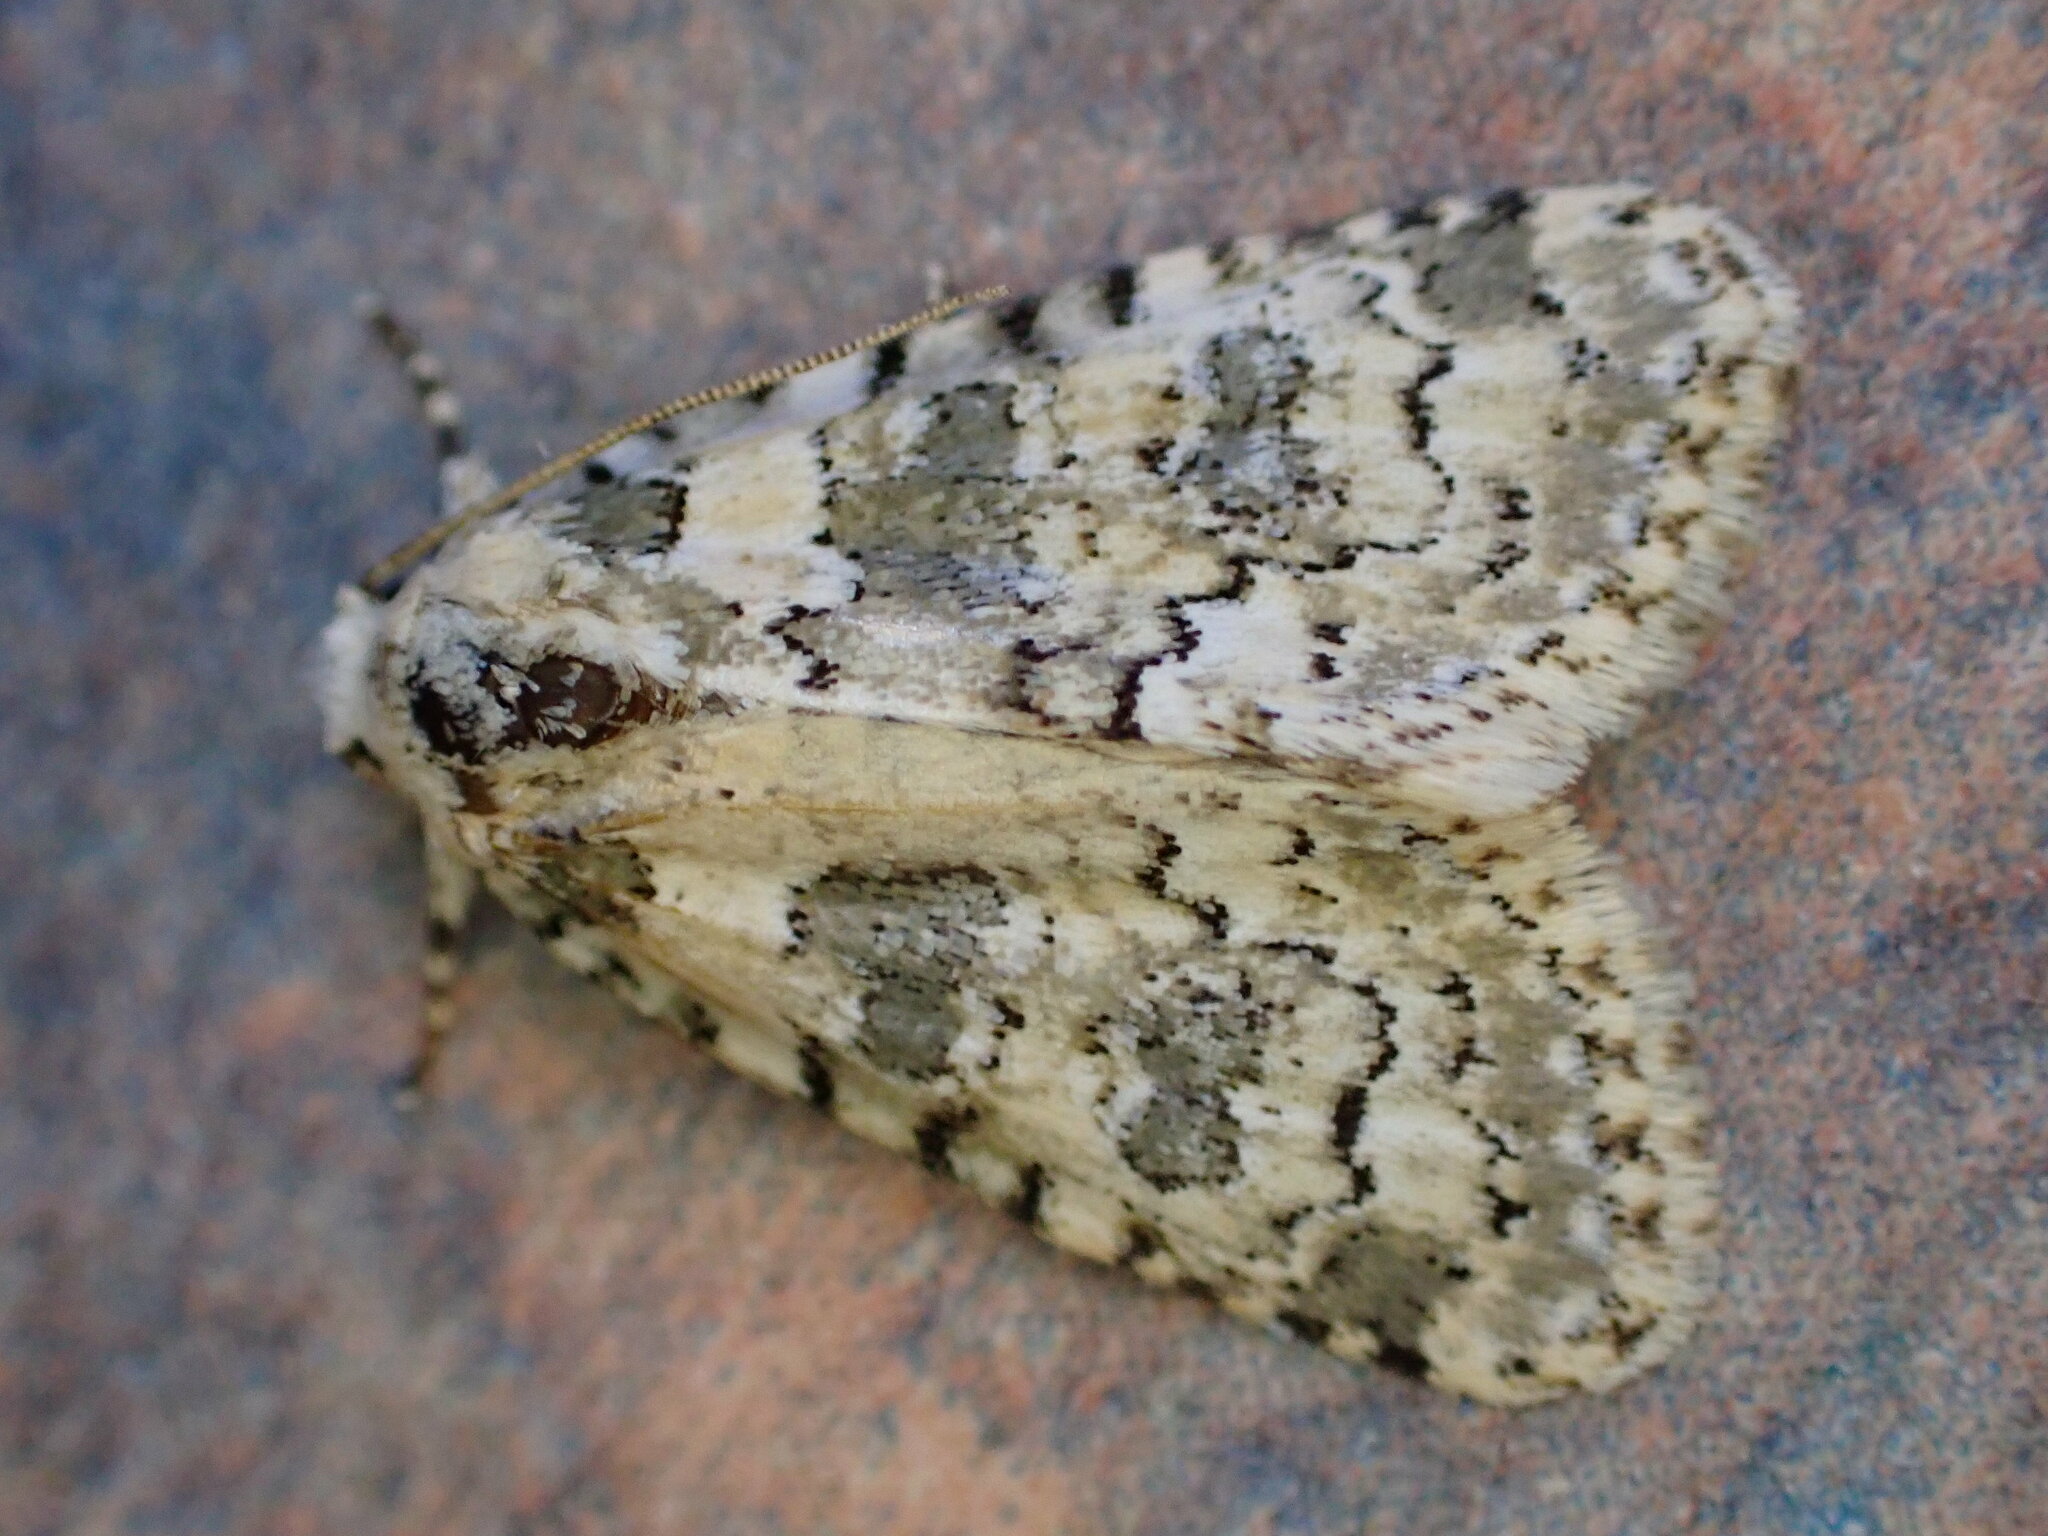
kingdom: Animalia
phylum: Arthropoda
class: Insecta
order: Lepidoptera
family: Noctuidae
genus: Bryophila
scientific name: Bryophila domestica
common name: Marbled beauty
